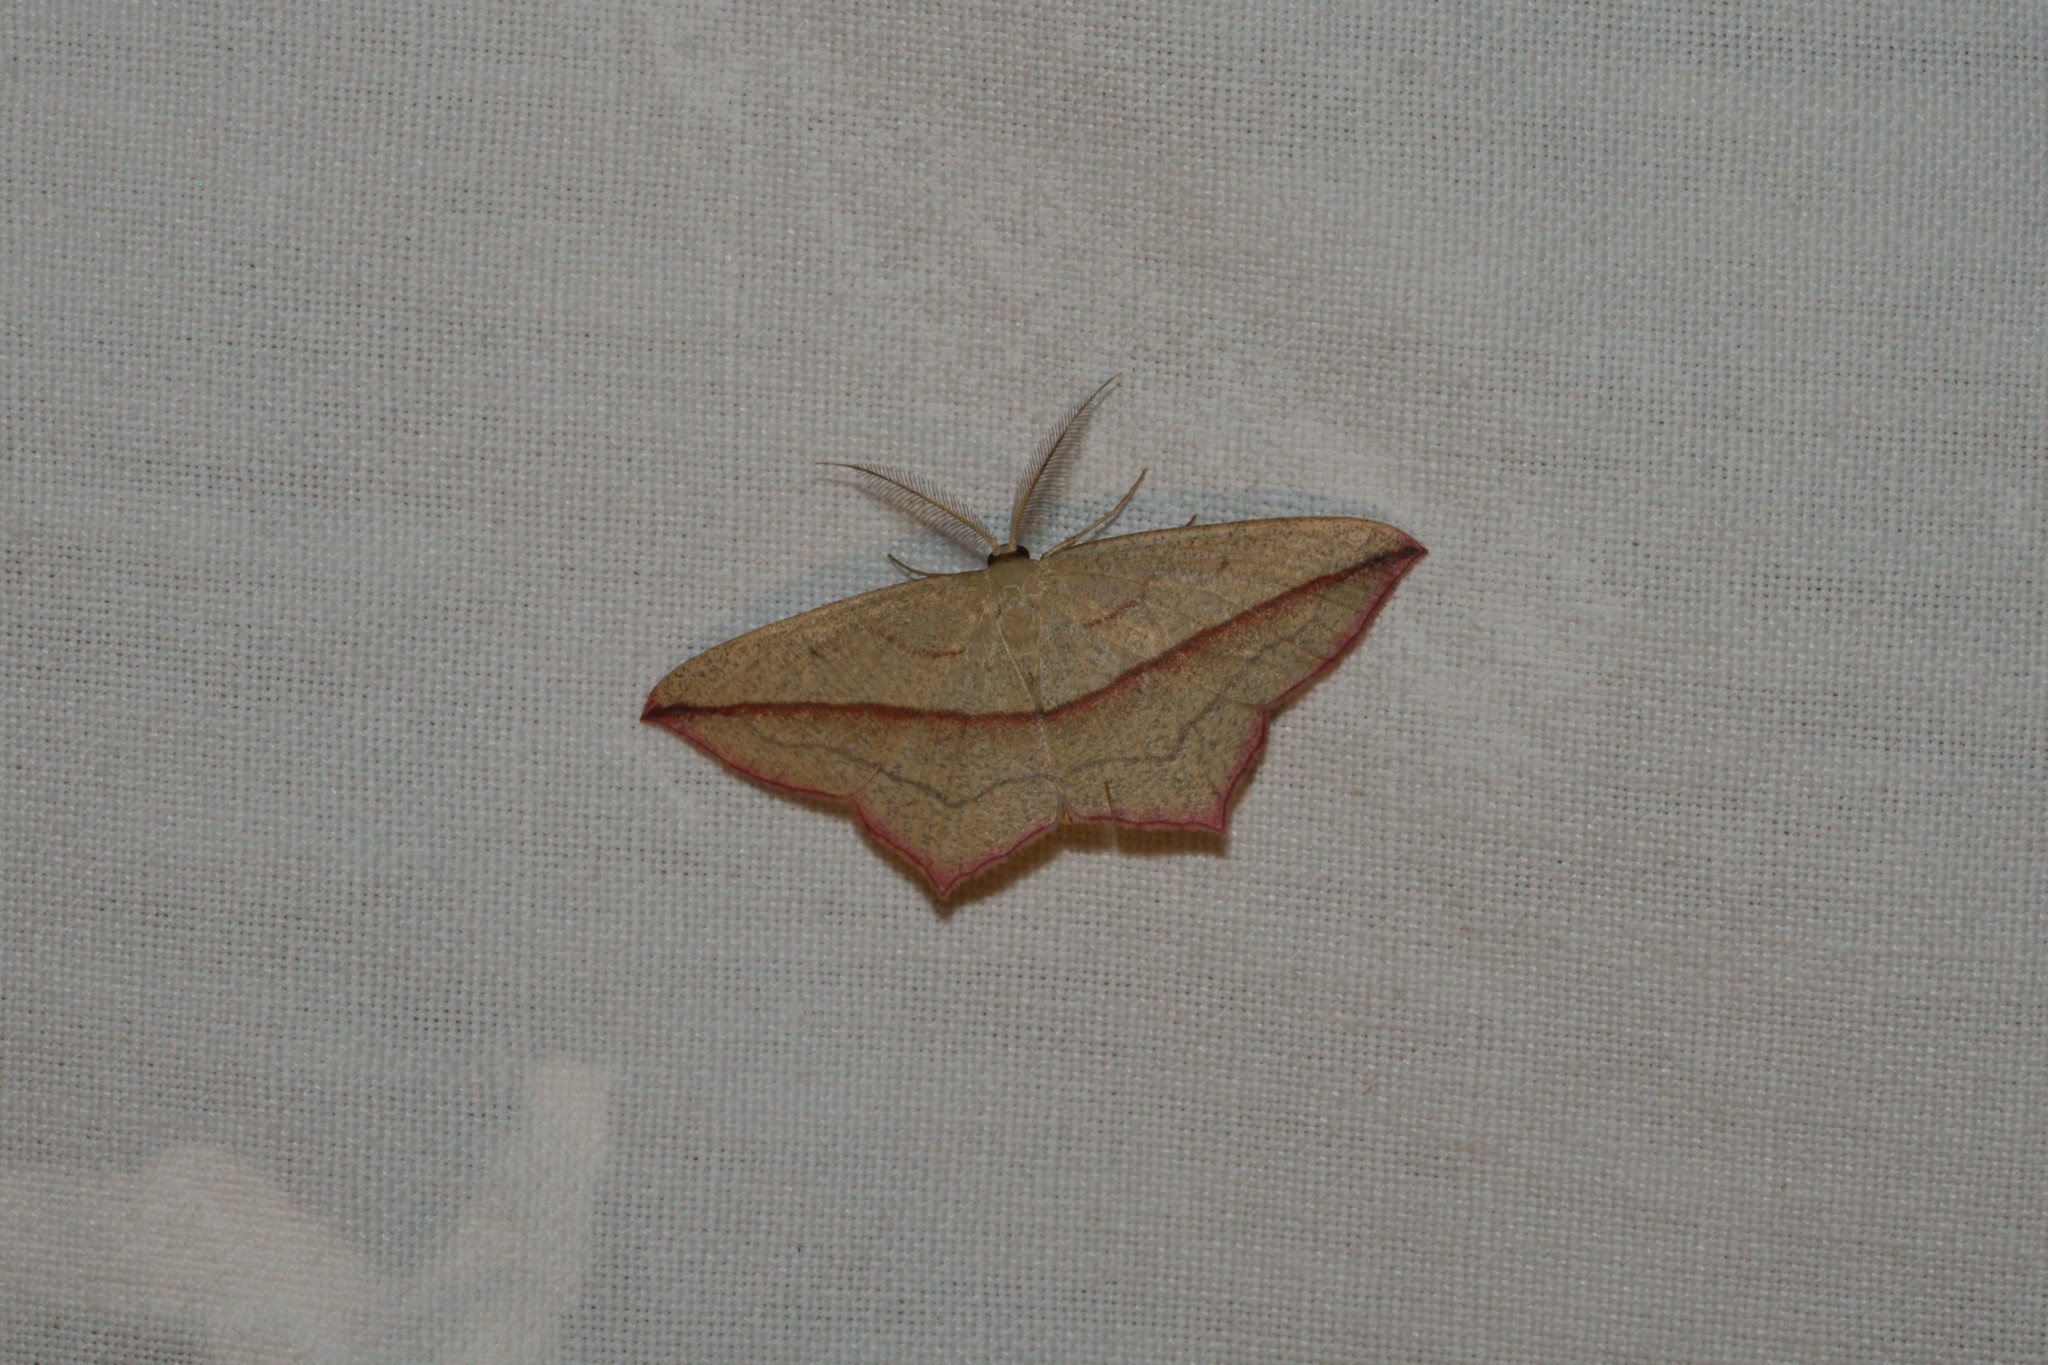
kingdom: Animalia
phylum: Arthropoda
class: Insecta
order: Lepidoptera
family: Geometridae
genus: Timandra
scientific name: Timandra comae
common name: Blood-vein
